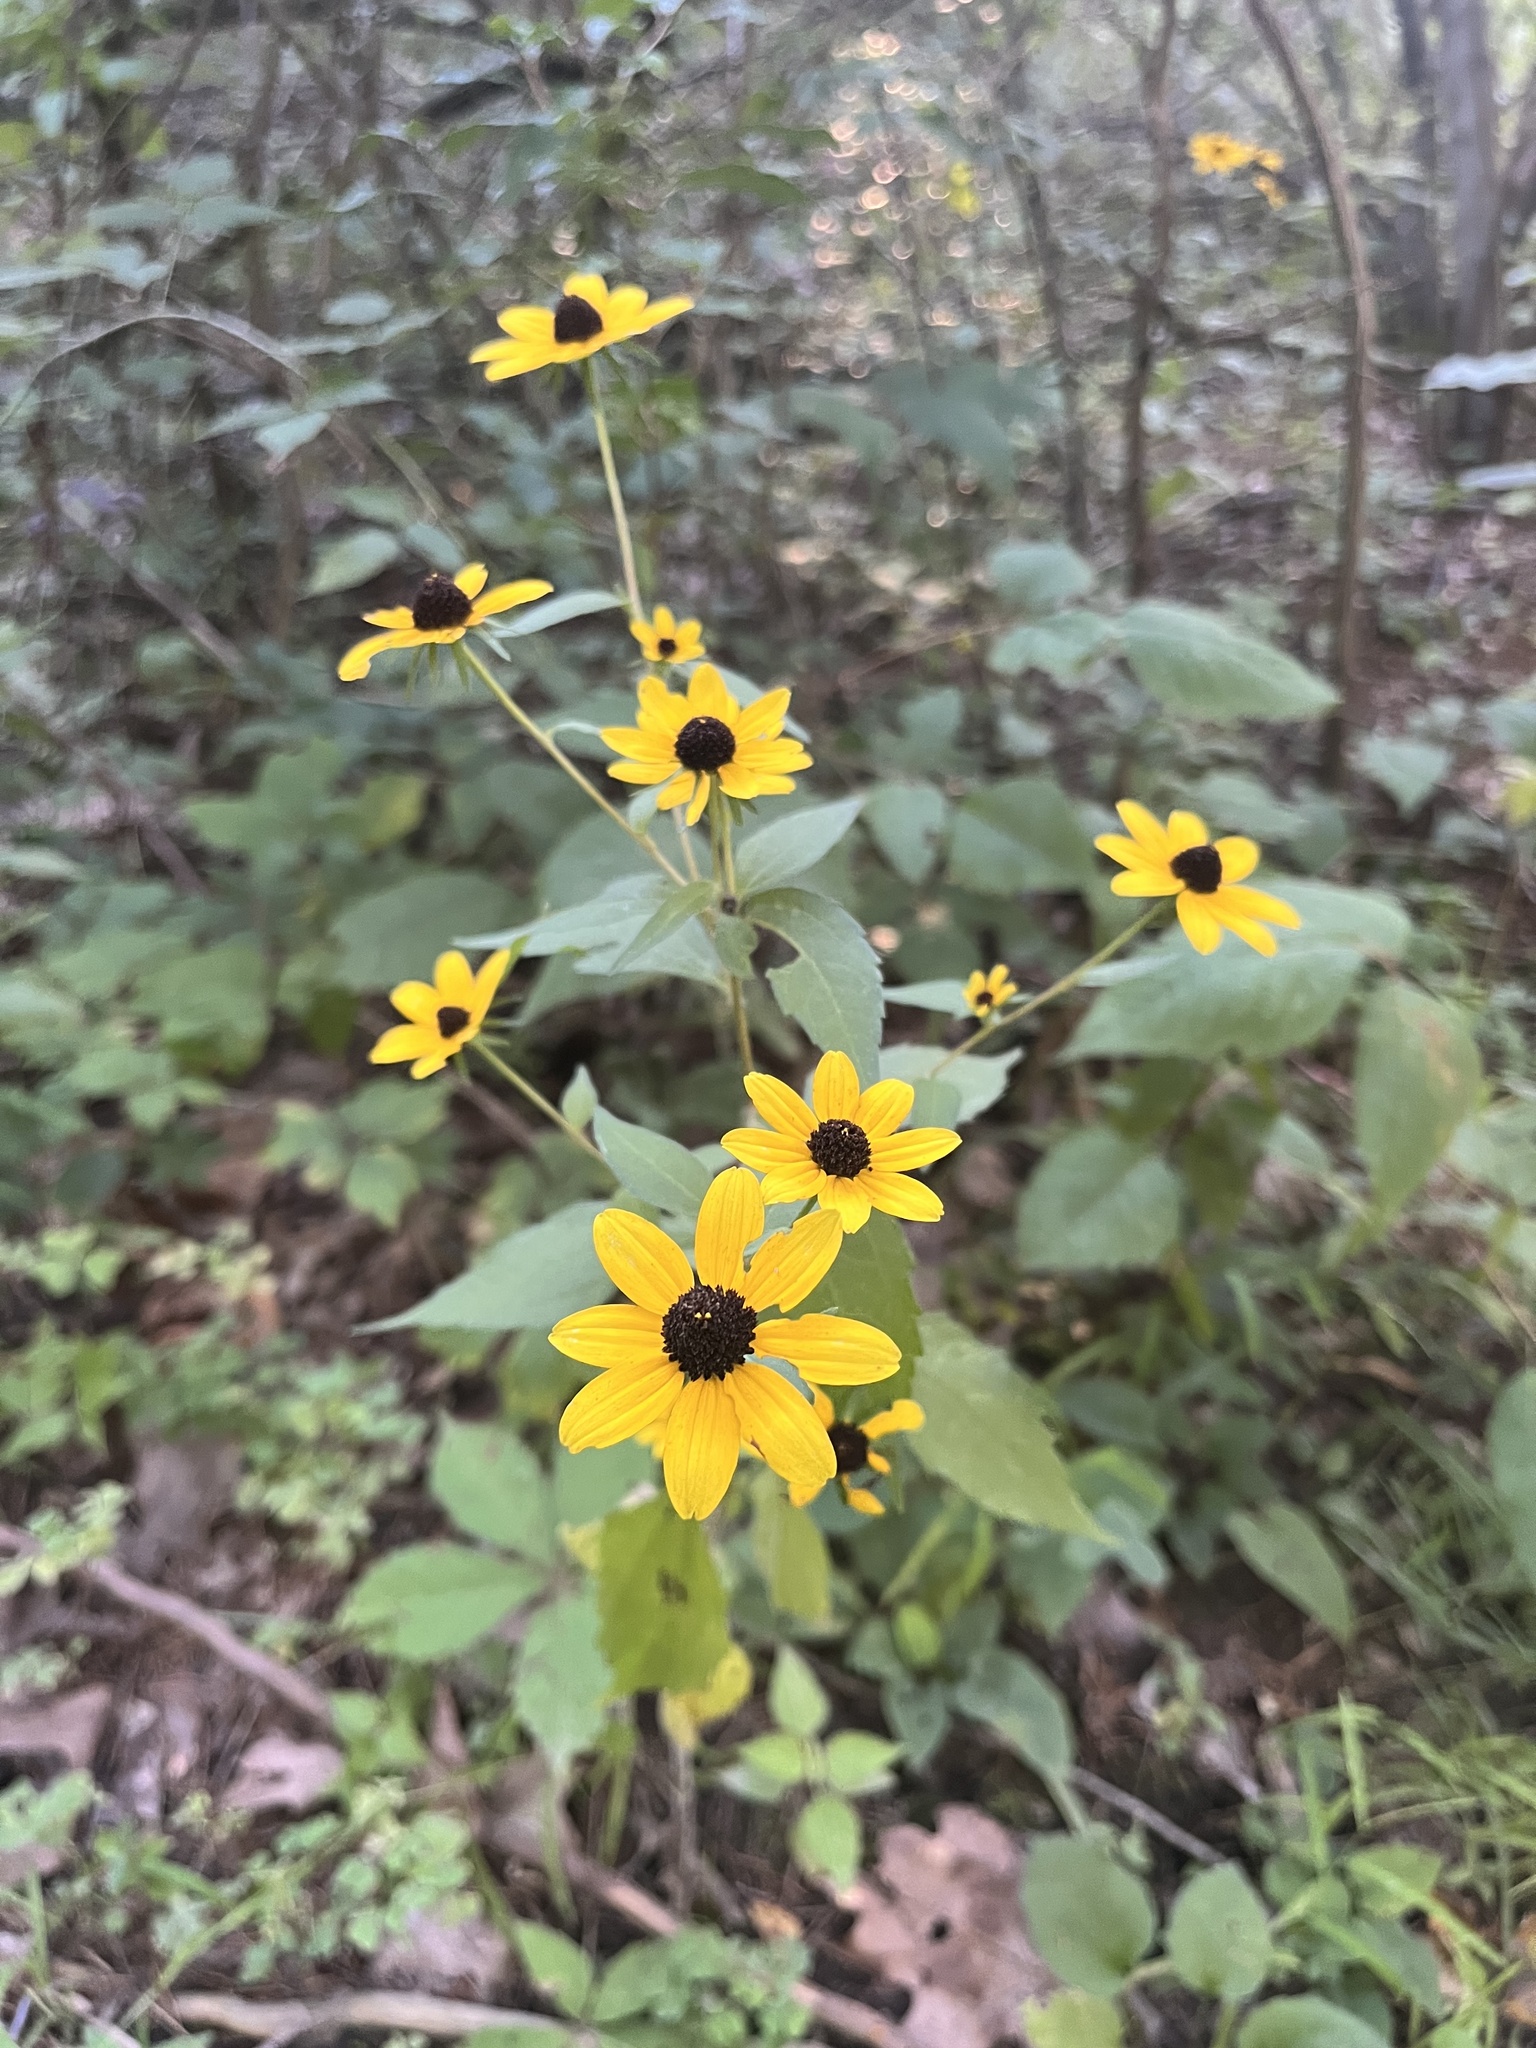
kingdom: Plantae
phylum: Tracheophyta
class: Magnoliopsida
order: Asterales
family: Asteraceae
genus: Rudbeckia
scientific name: Rudbeckia triloba
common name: Thin-leaved coneflower
